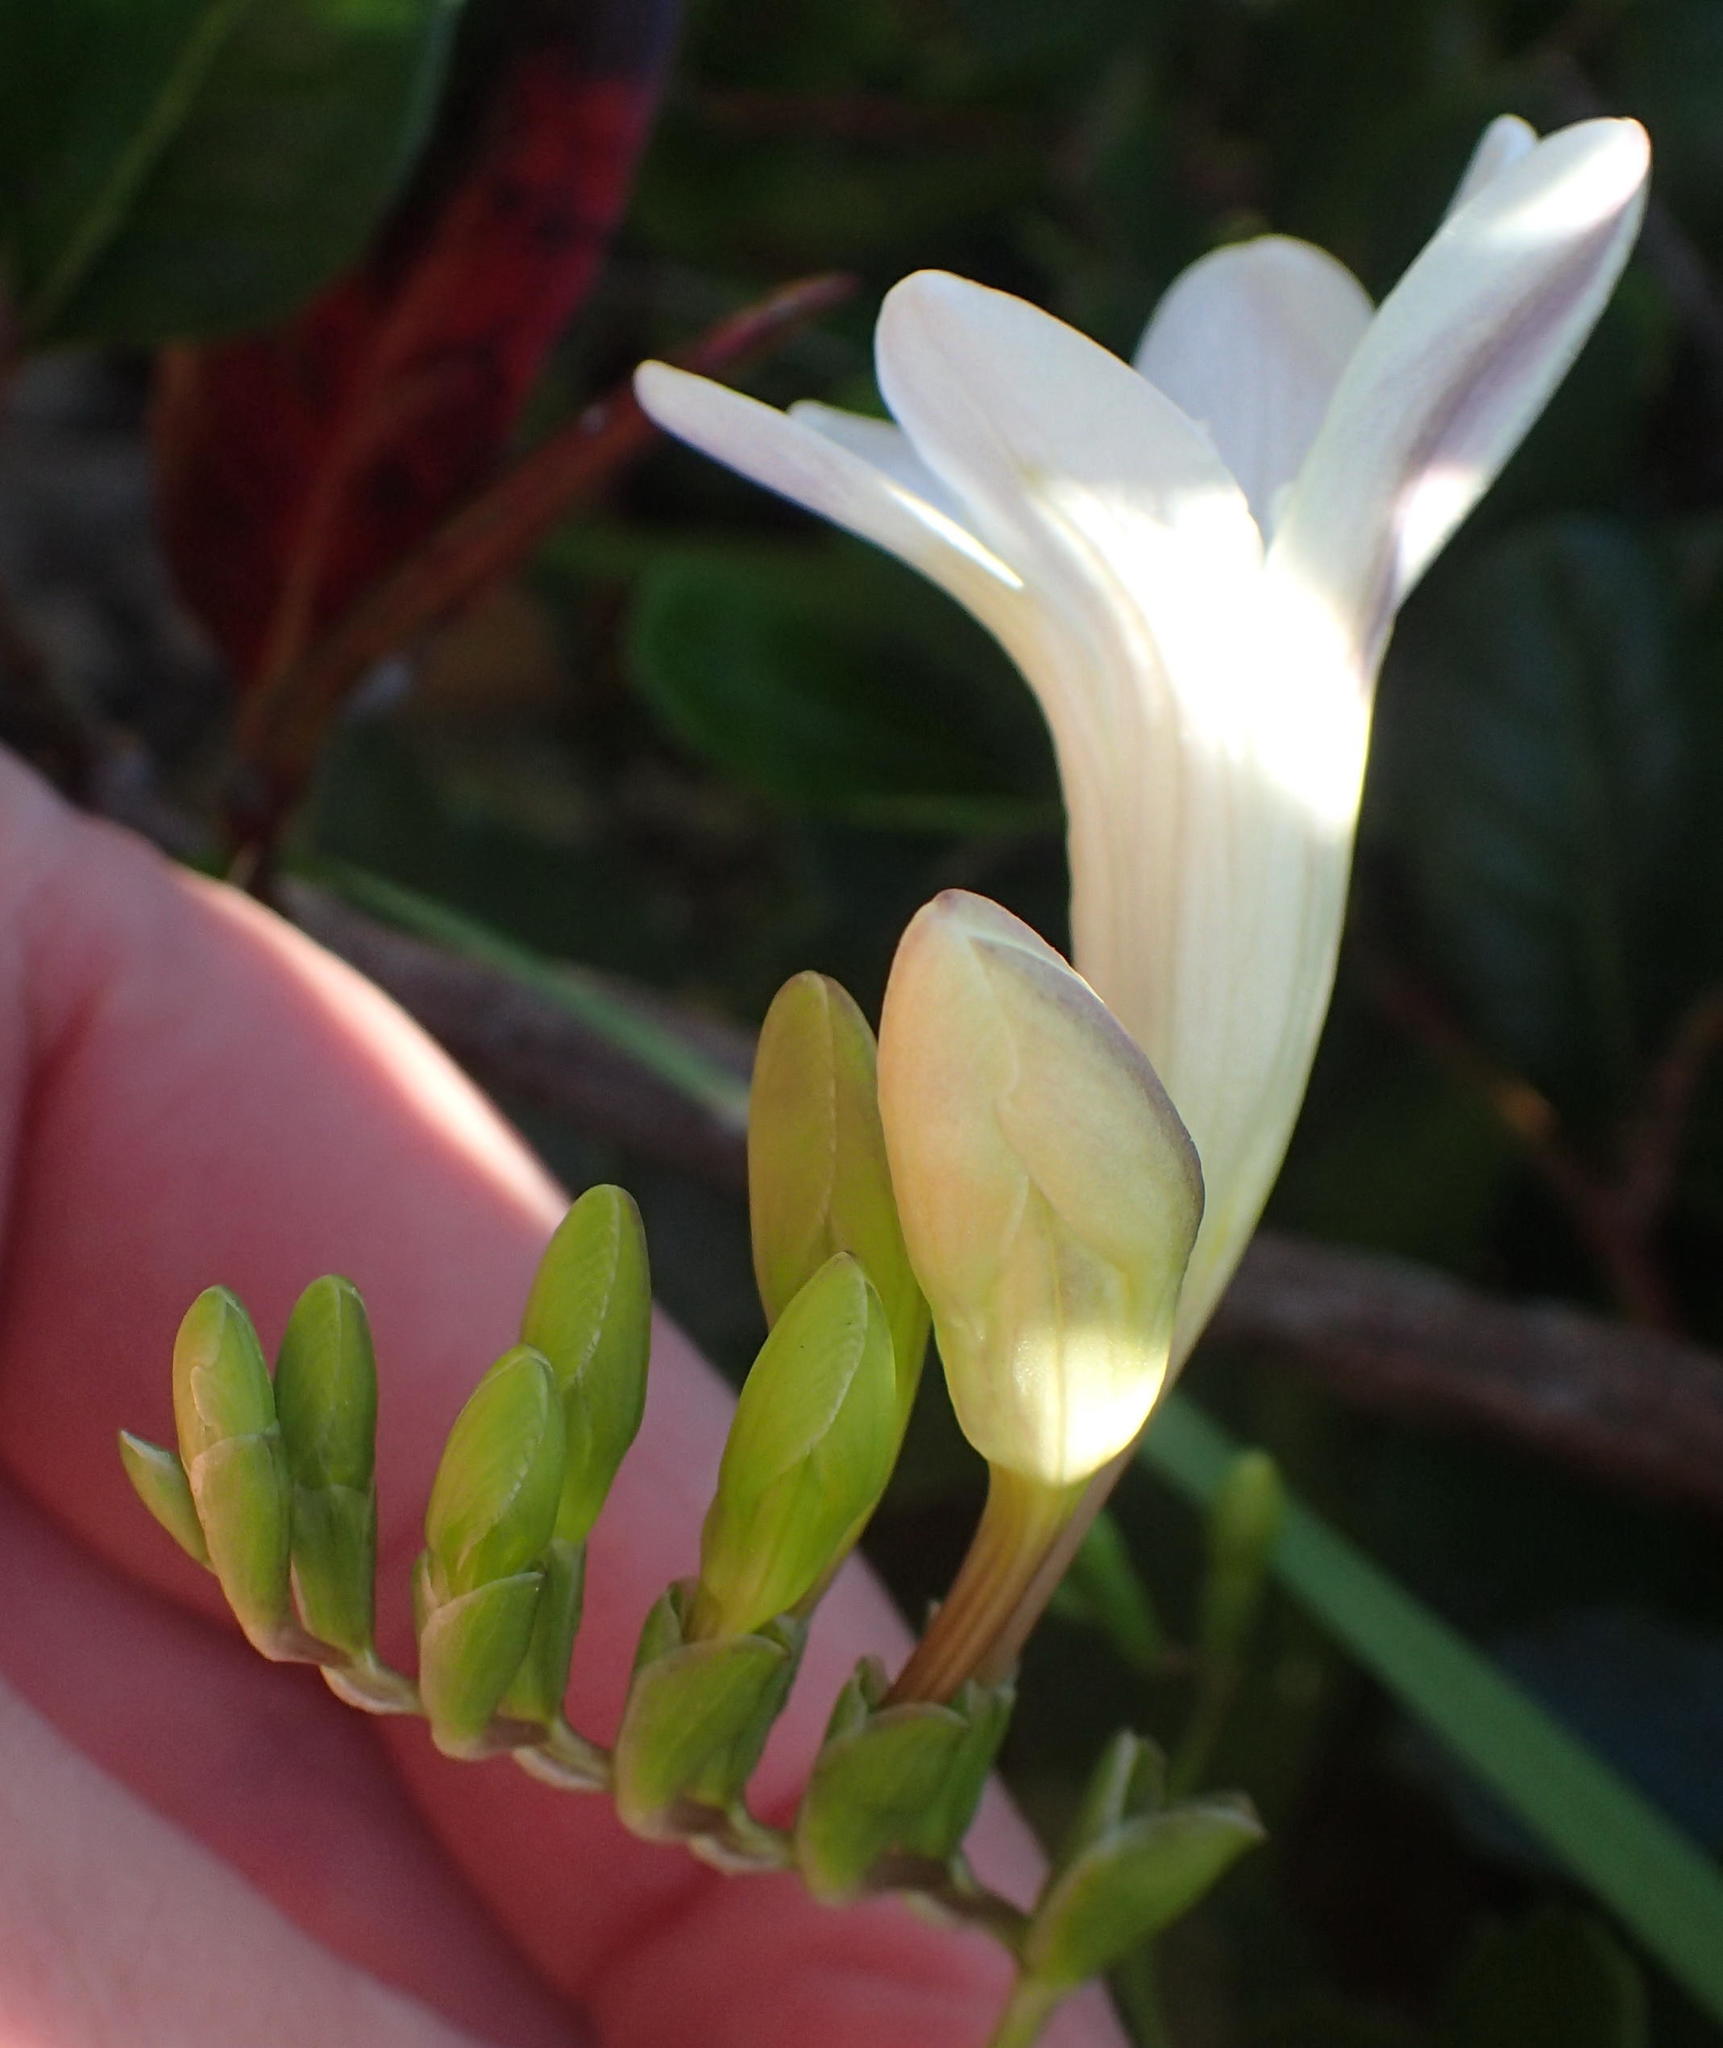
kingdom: Plantae
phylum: Tracheophyta
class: Liliopsida
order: Asparagales
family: Iridaceae
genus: Freesia
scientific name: Freesia leichtlinii
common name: Freesia
